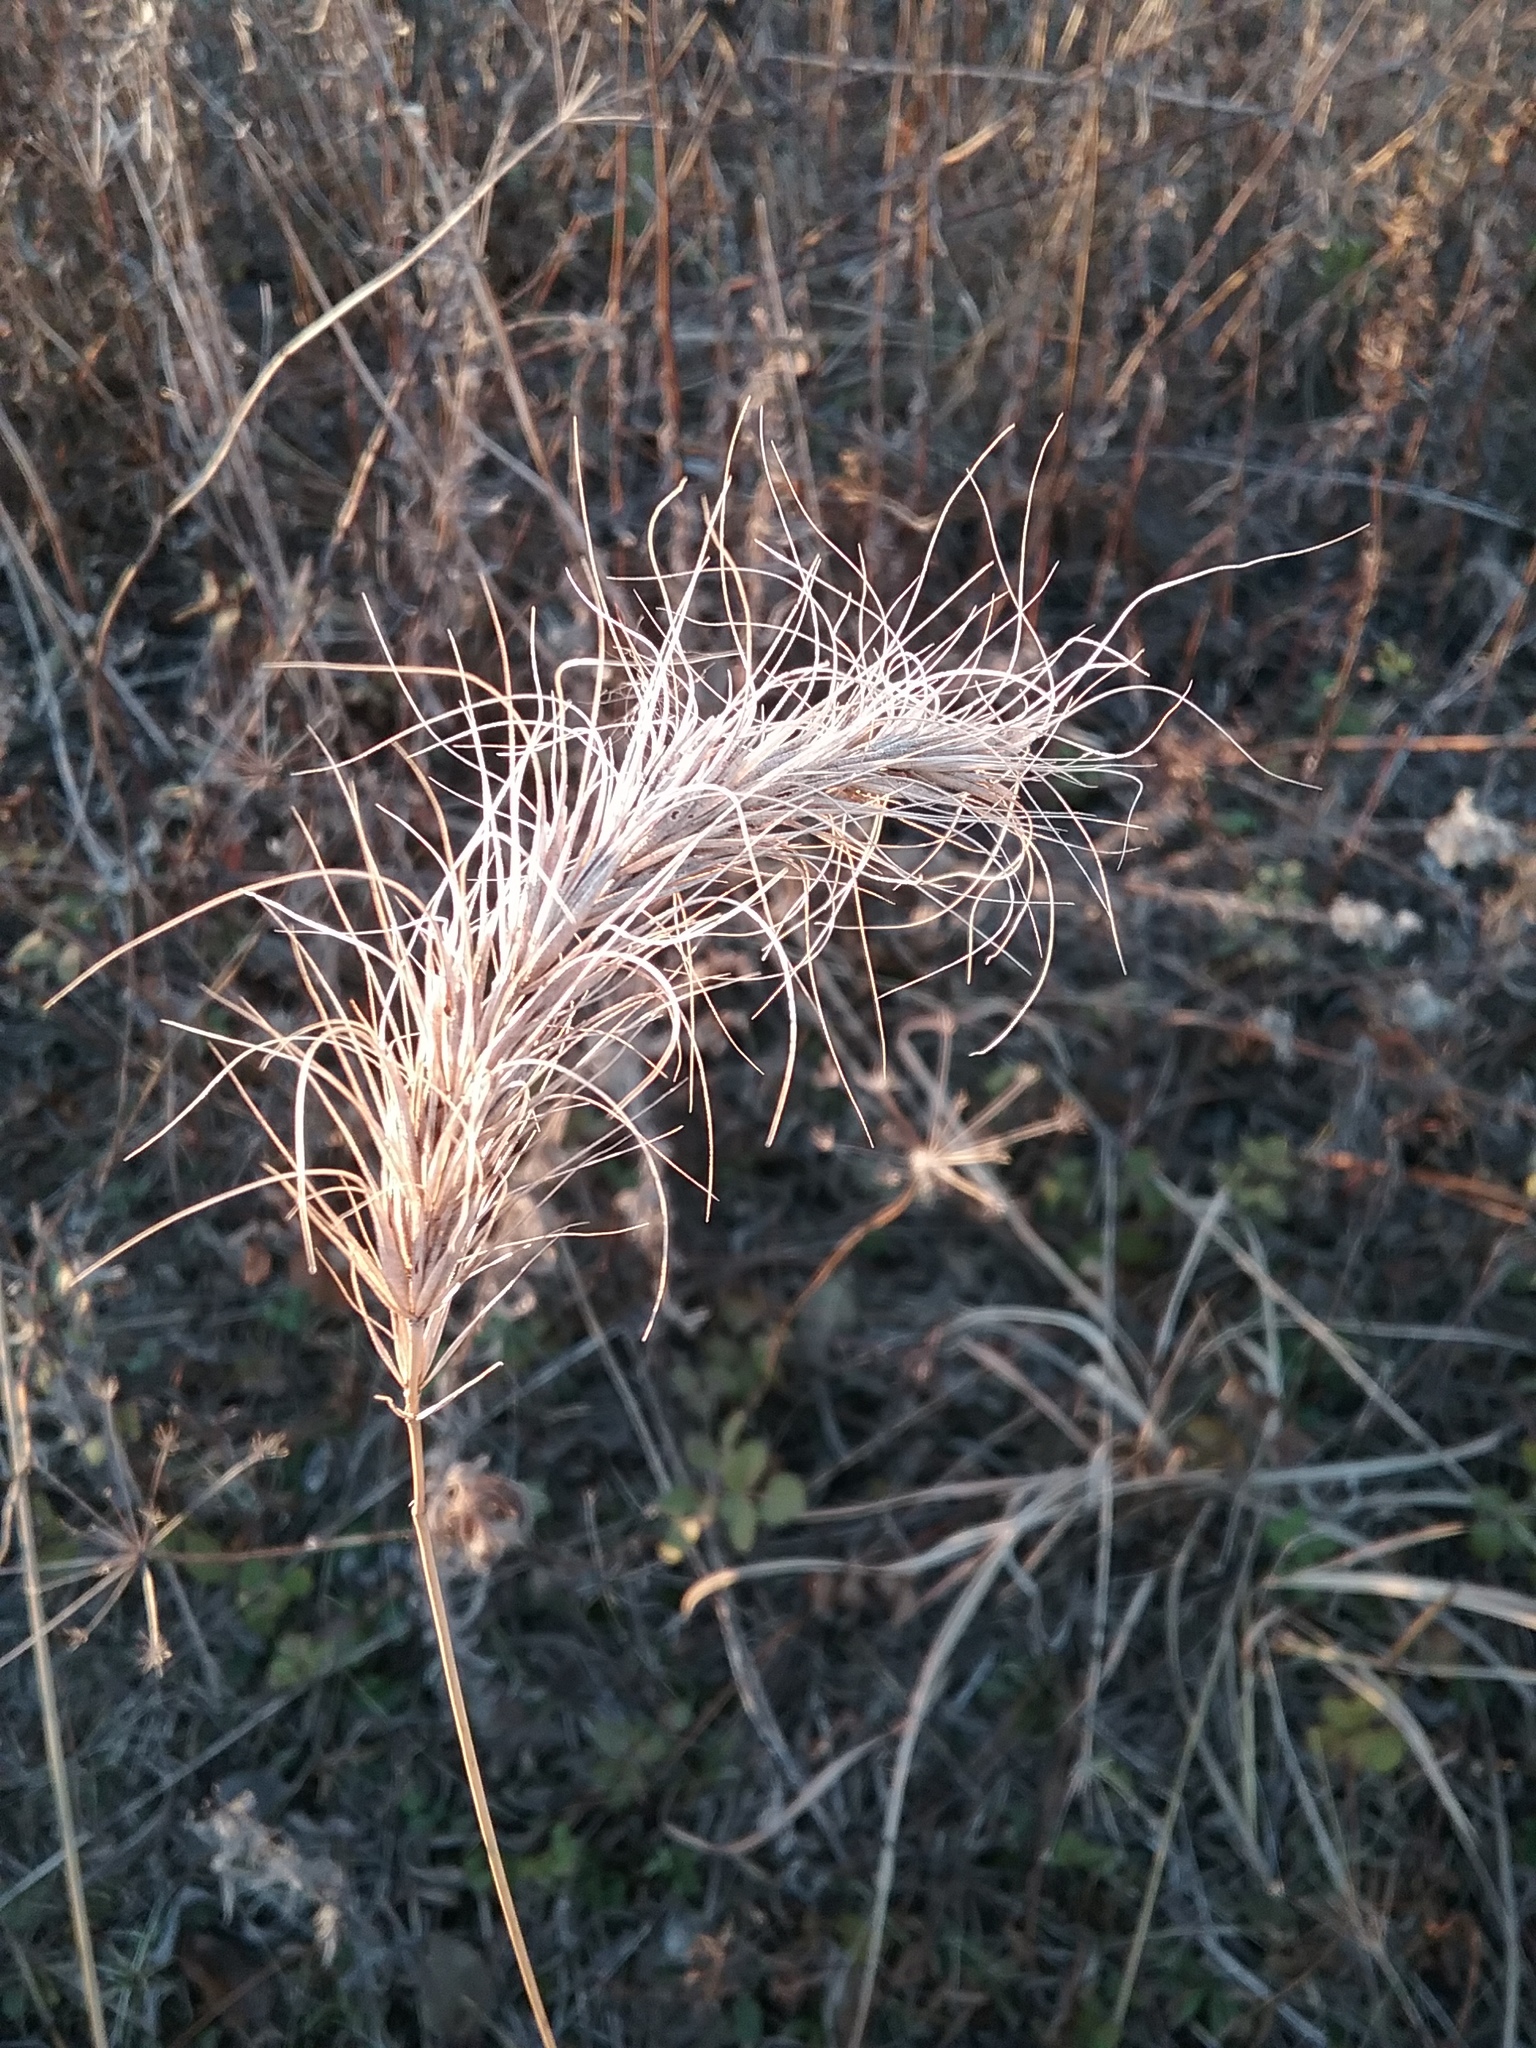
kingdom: Plantae
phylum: Tracheophyta
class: Liliopsida
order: Poales
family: Poaceae
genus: Elymus
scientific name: Elymus canadensis
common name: Canada wild rye
